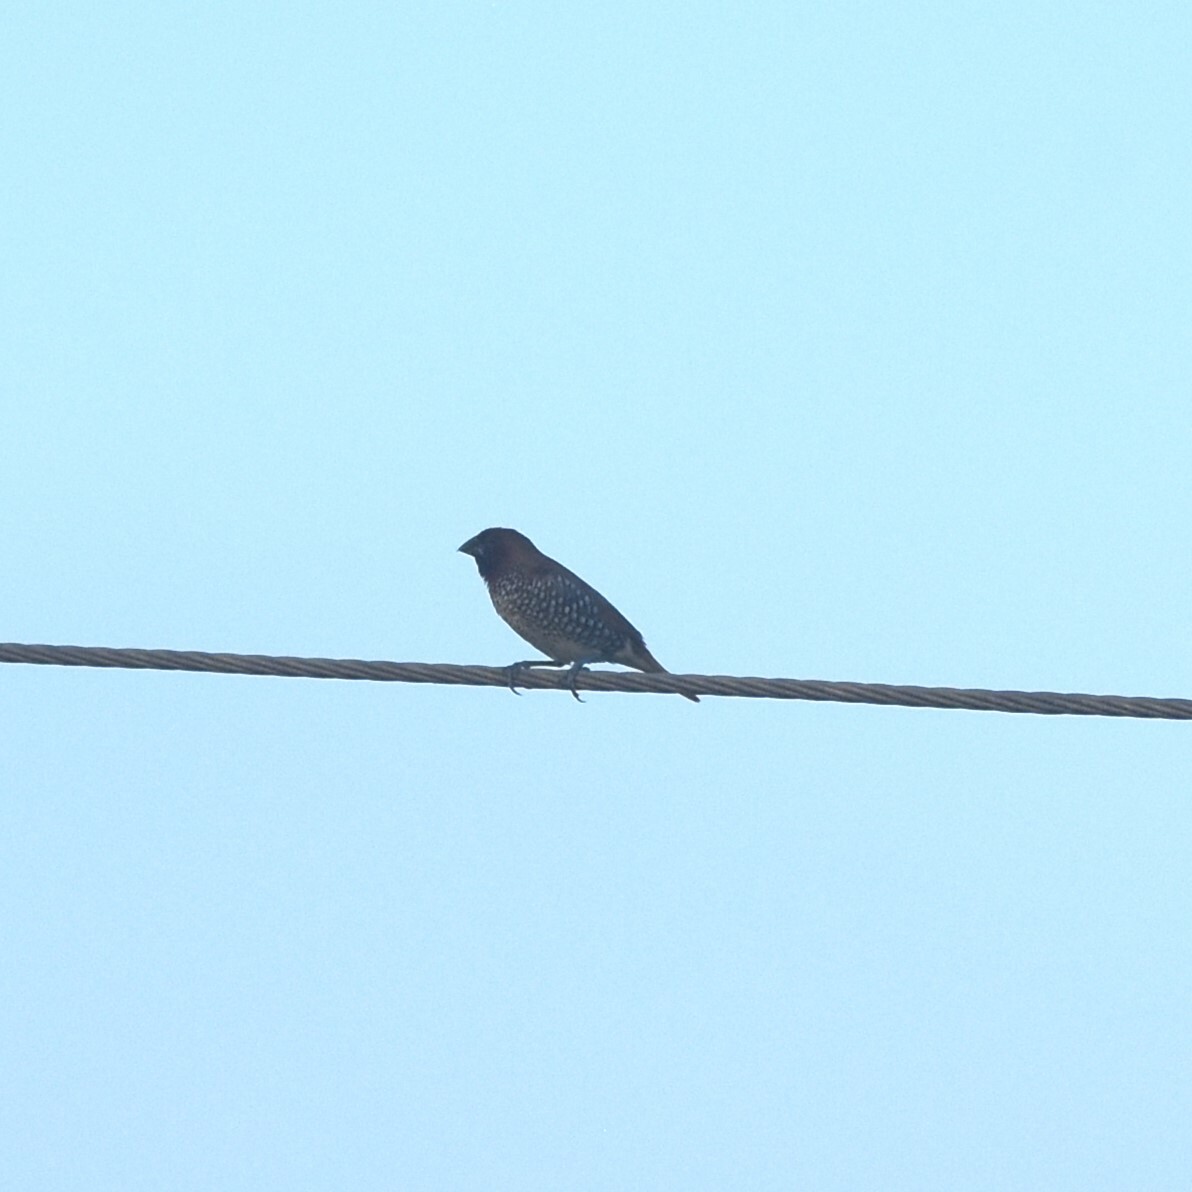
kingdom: Animalia
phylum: Chordata
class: Aves
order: Passeriformes
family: Estrildidae
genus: Lonchura
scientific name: Lonchura punctulata
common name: Scaly-breasted munia
